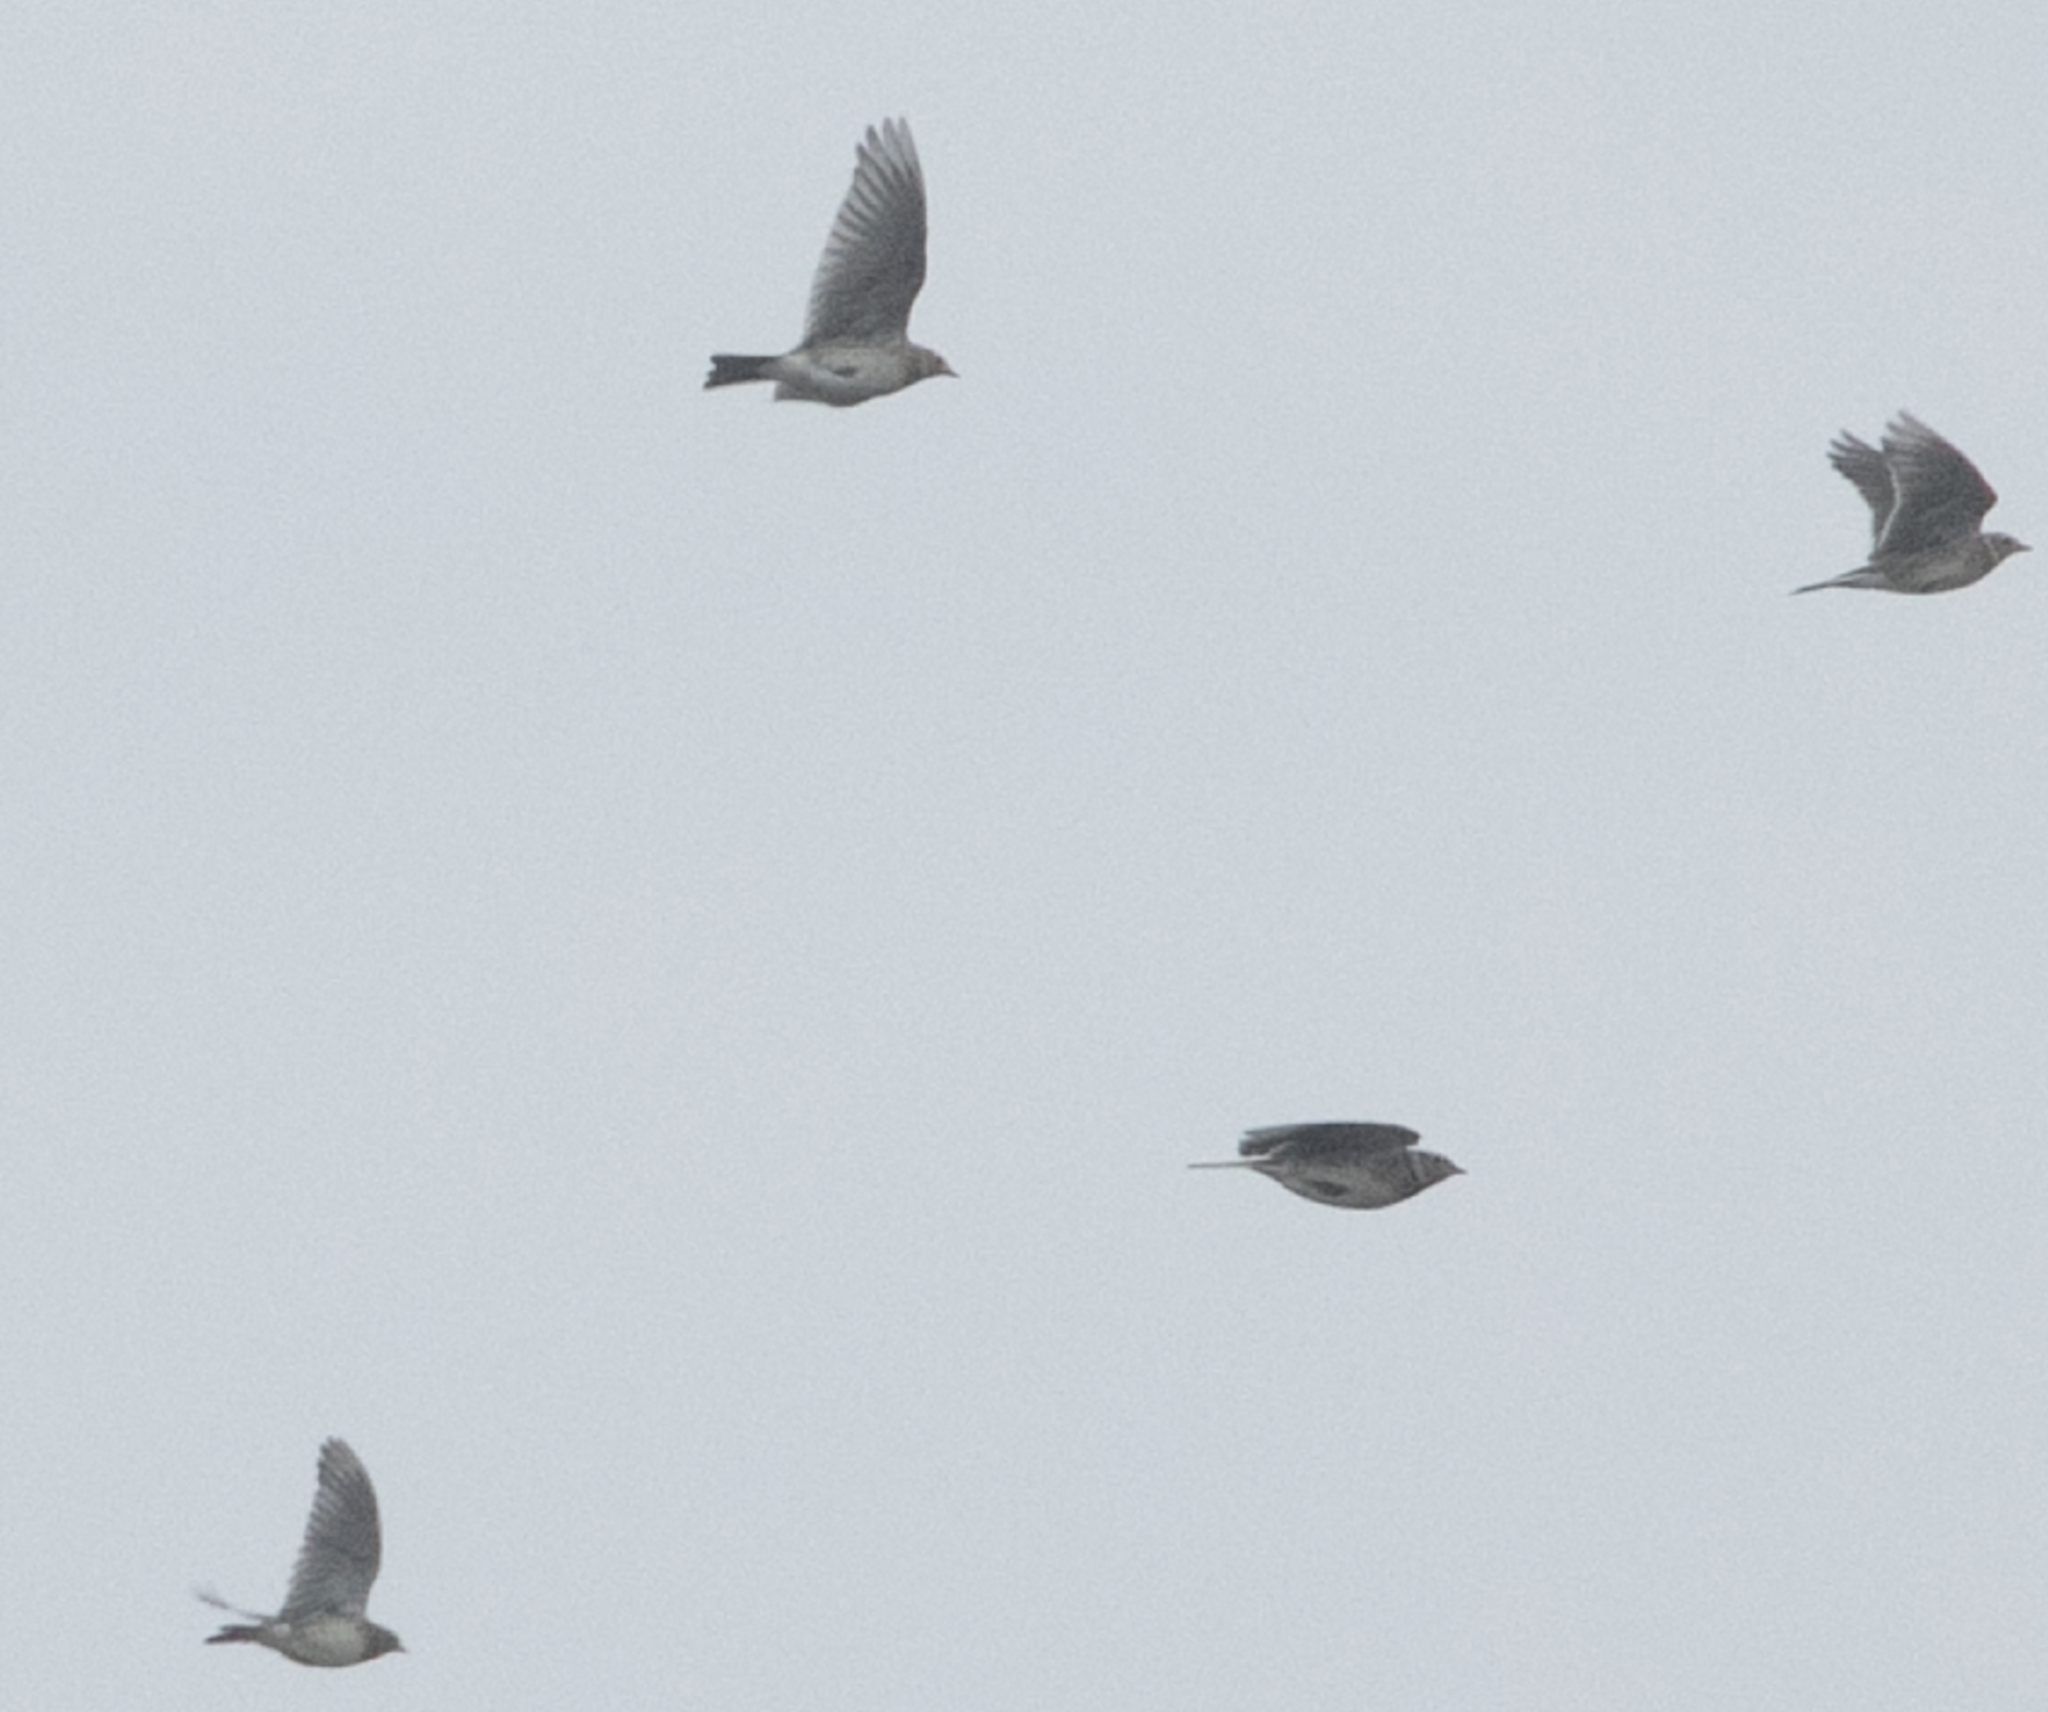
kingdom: Animalia
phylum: Chordata
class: Aves
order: Passeriformes
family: Alaudidae
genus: Alauda
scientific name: Alauda arvensis
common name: Eurasian skylark
